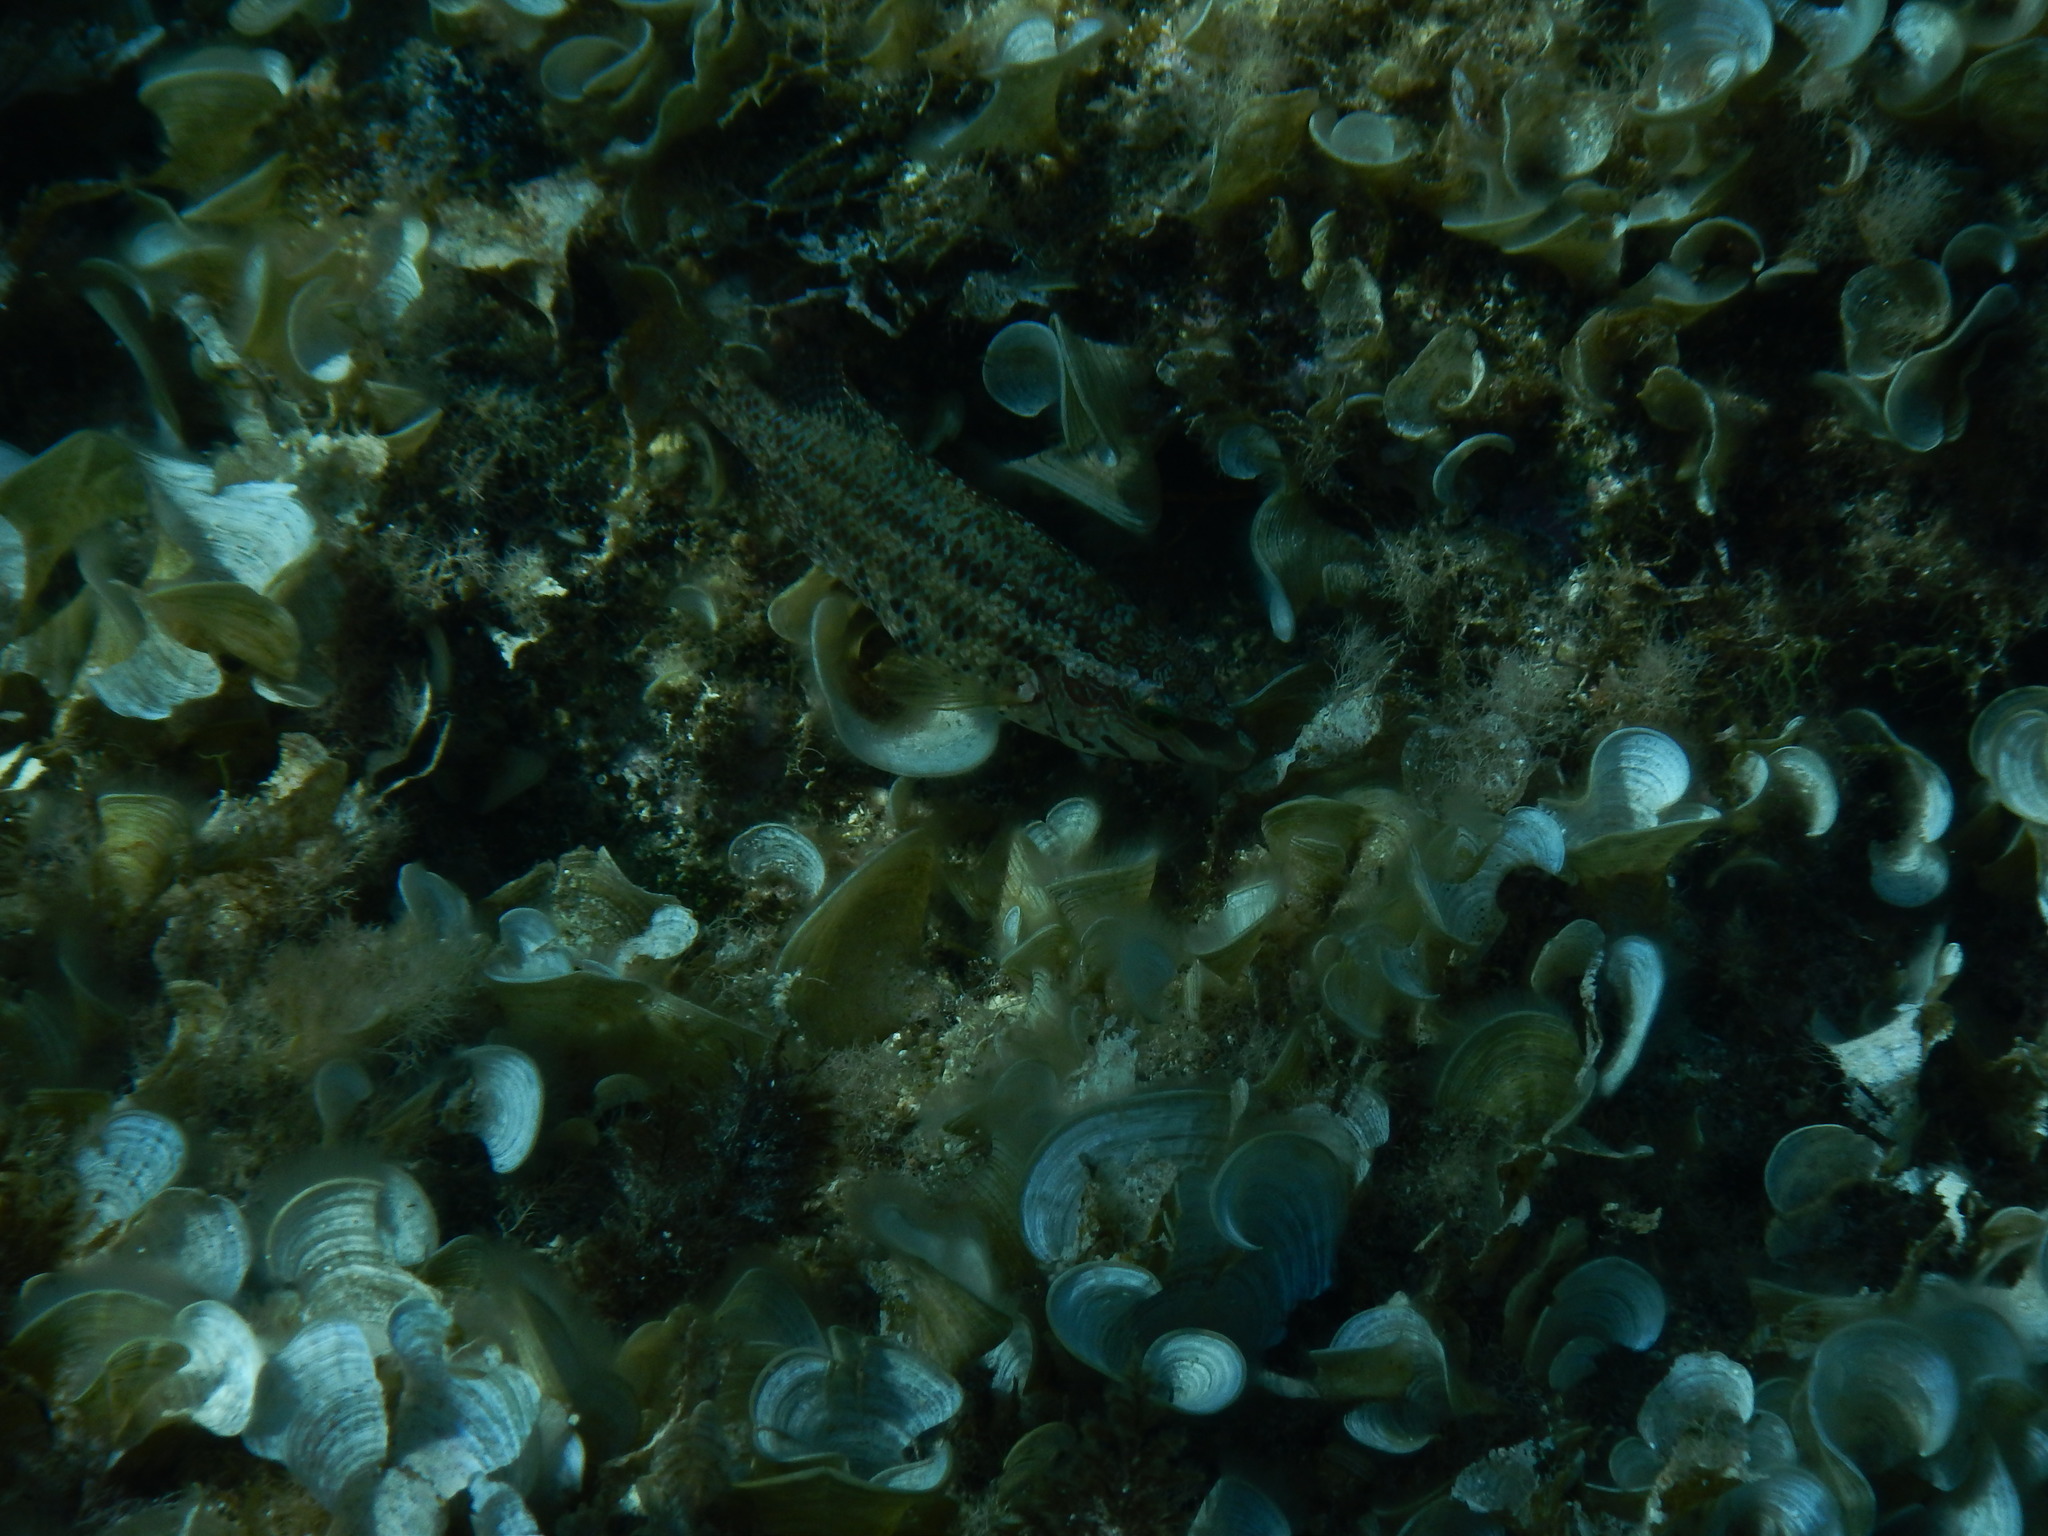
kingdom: Animalia
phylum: Chordata
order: Perciformes
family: Labridae
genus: Symphodus
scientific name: Symphodus roissali
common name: Five-spotted wrasse
